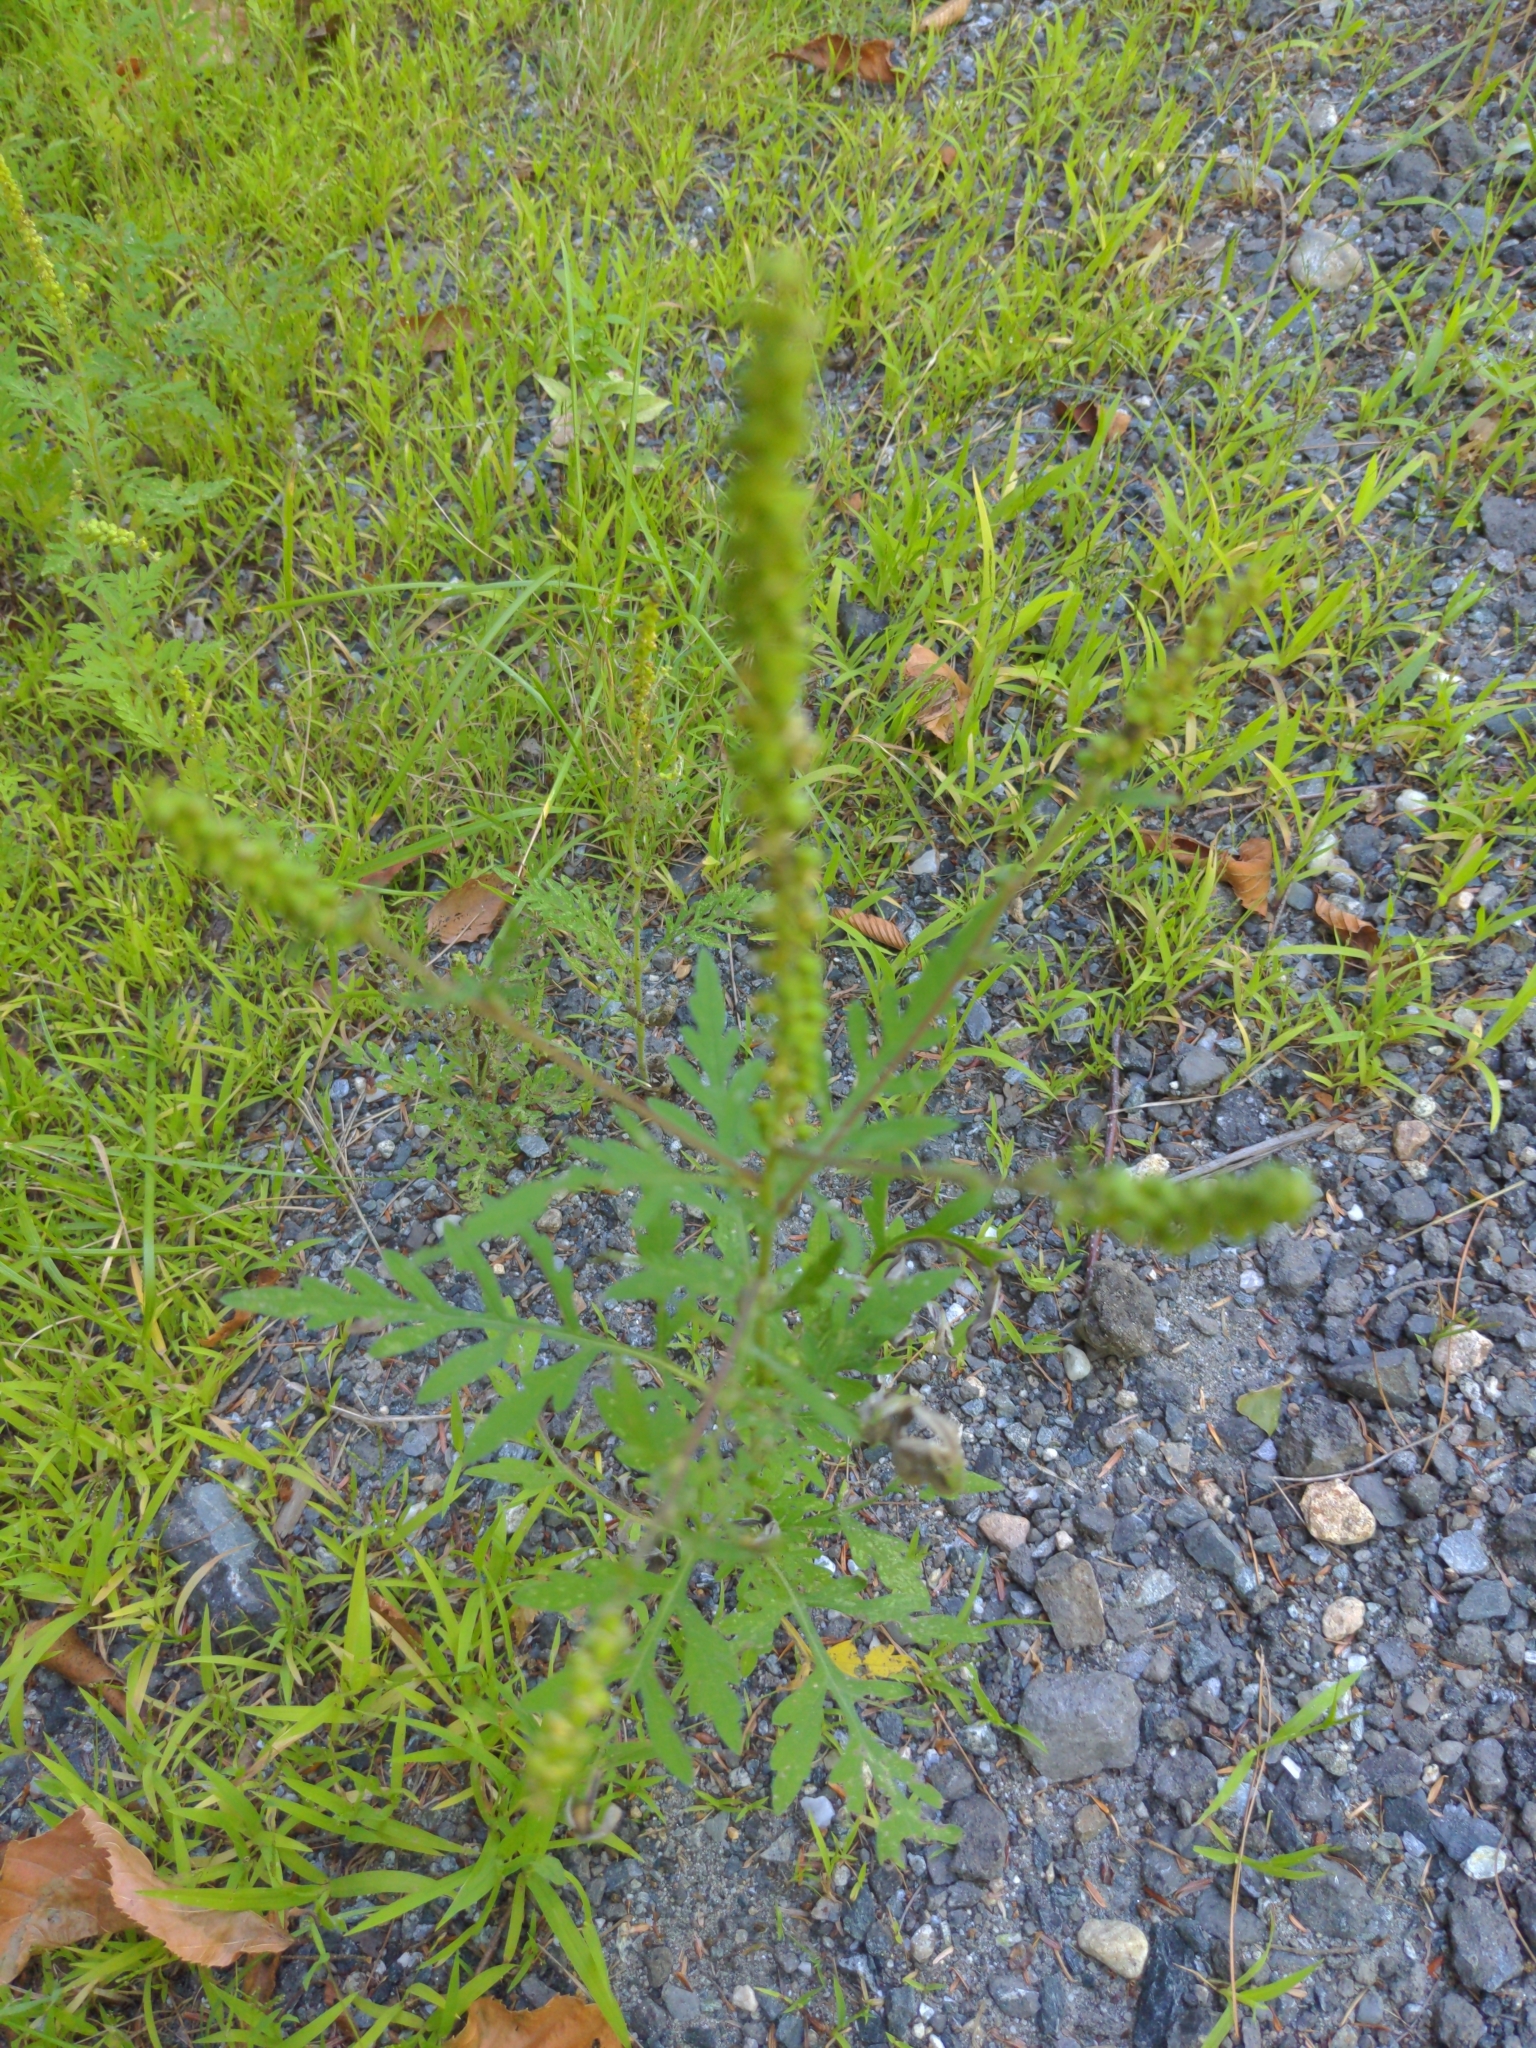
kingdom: Plantae
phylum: Tracheophyta
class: Magnoliopsida
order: Asterales
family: Asteraceae
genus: Ambrosia
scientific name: Ambrosia artemisiifolia
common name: Annual ragweed
